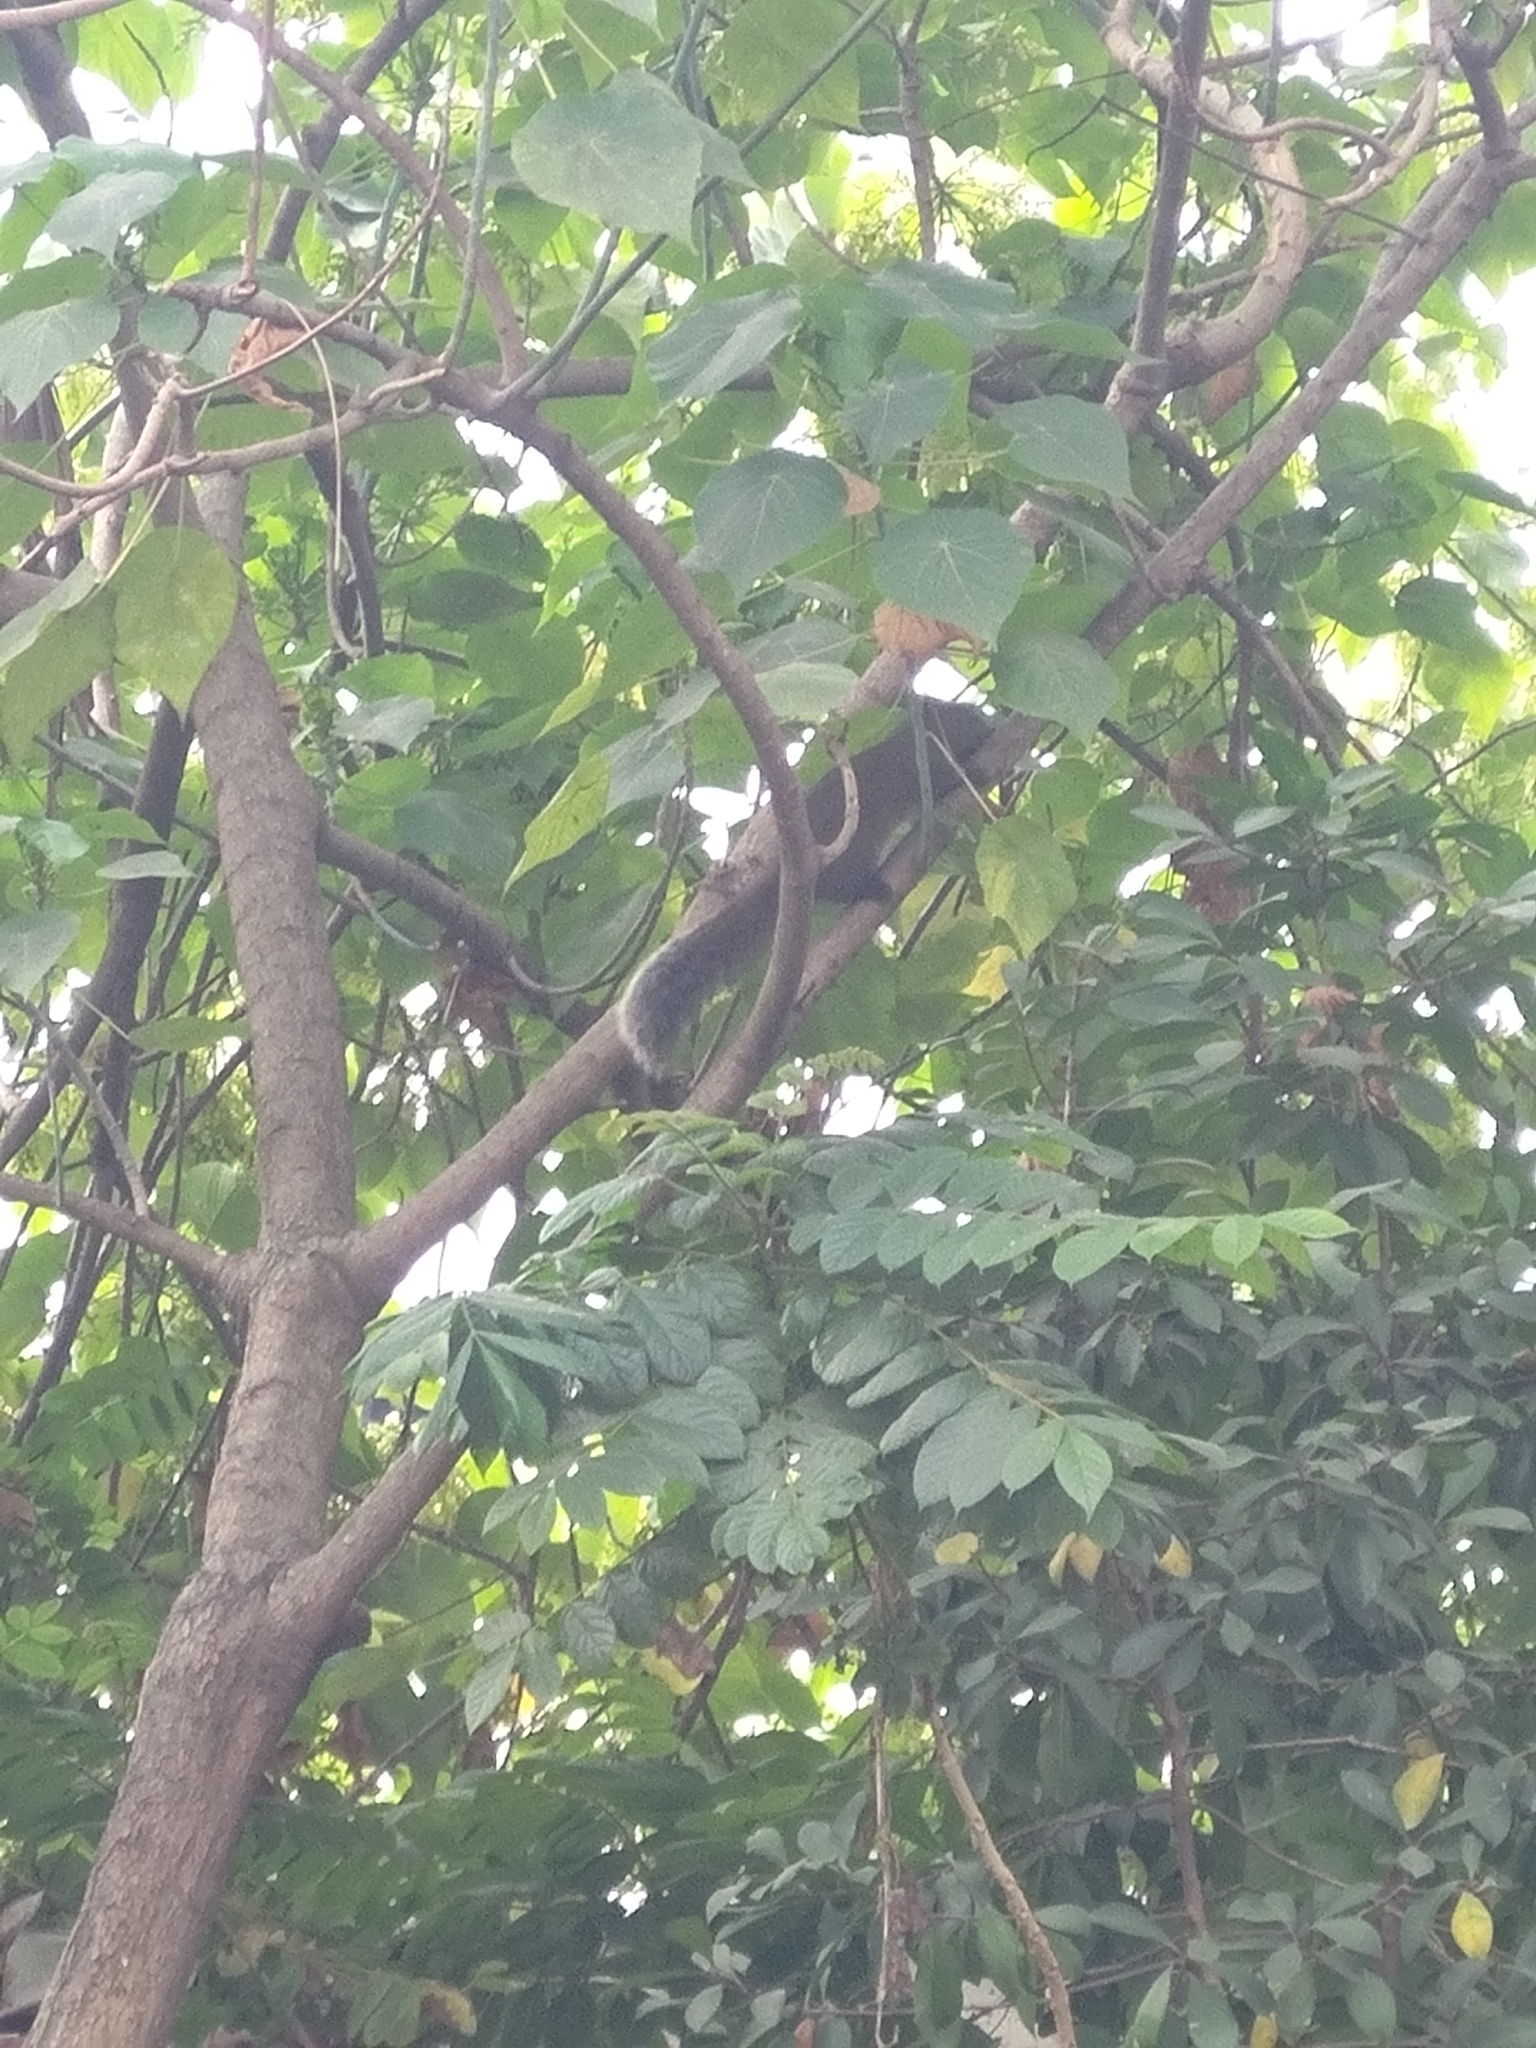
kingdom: Animalia
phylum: Chordata
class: Mammalia
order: Rodentia
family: Sciuridae
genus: Callosciurus
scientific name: Callosciurus erythraeus
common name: Pallas's squirrel
